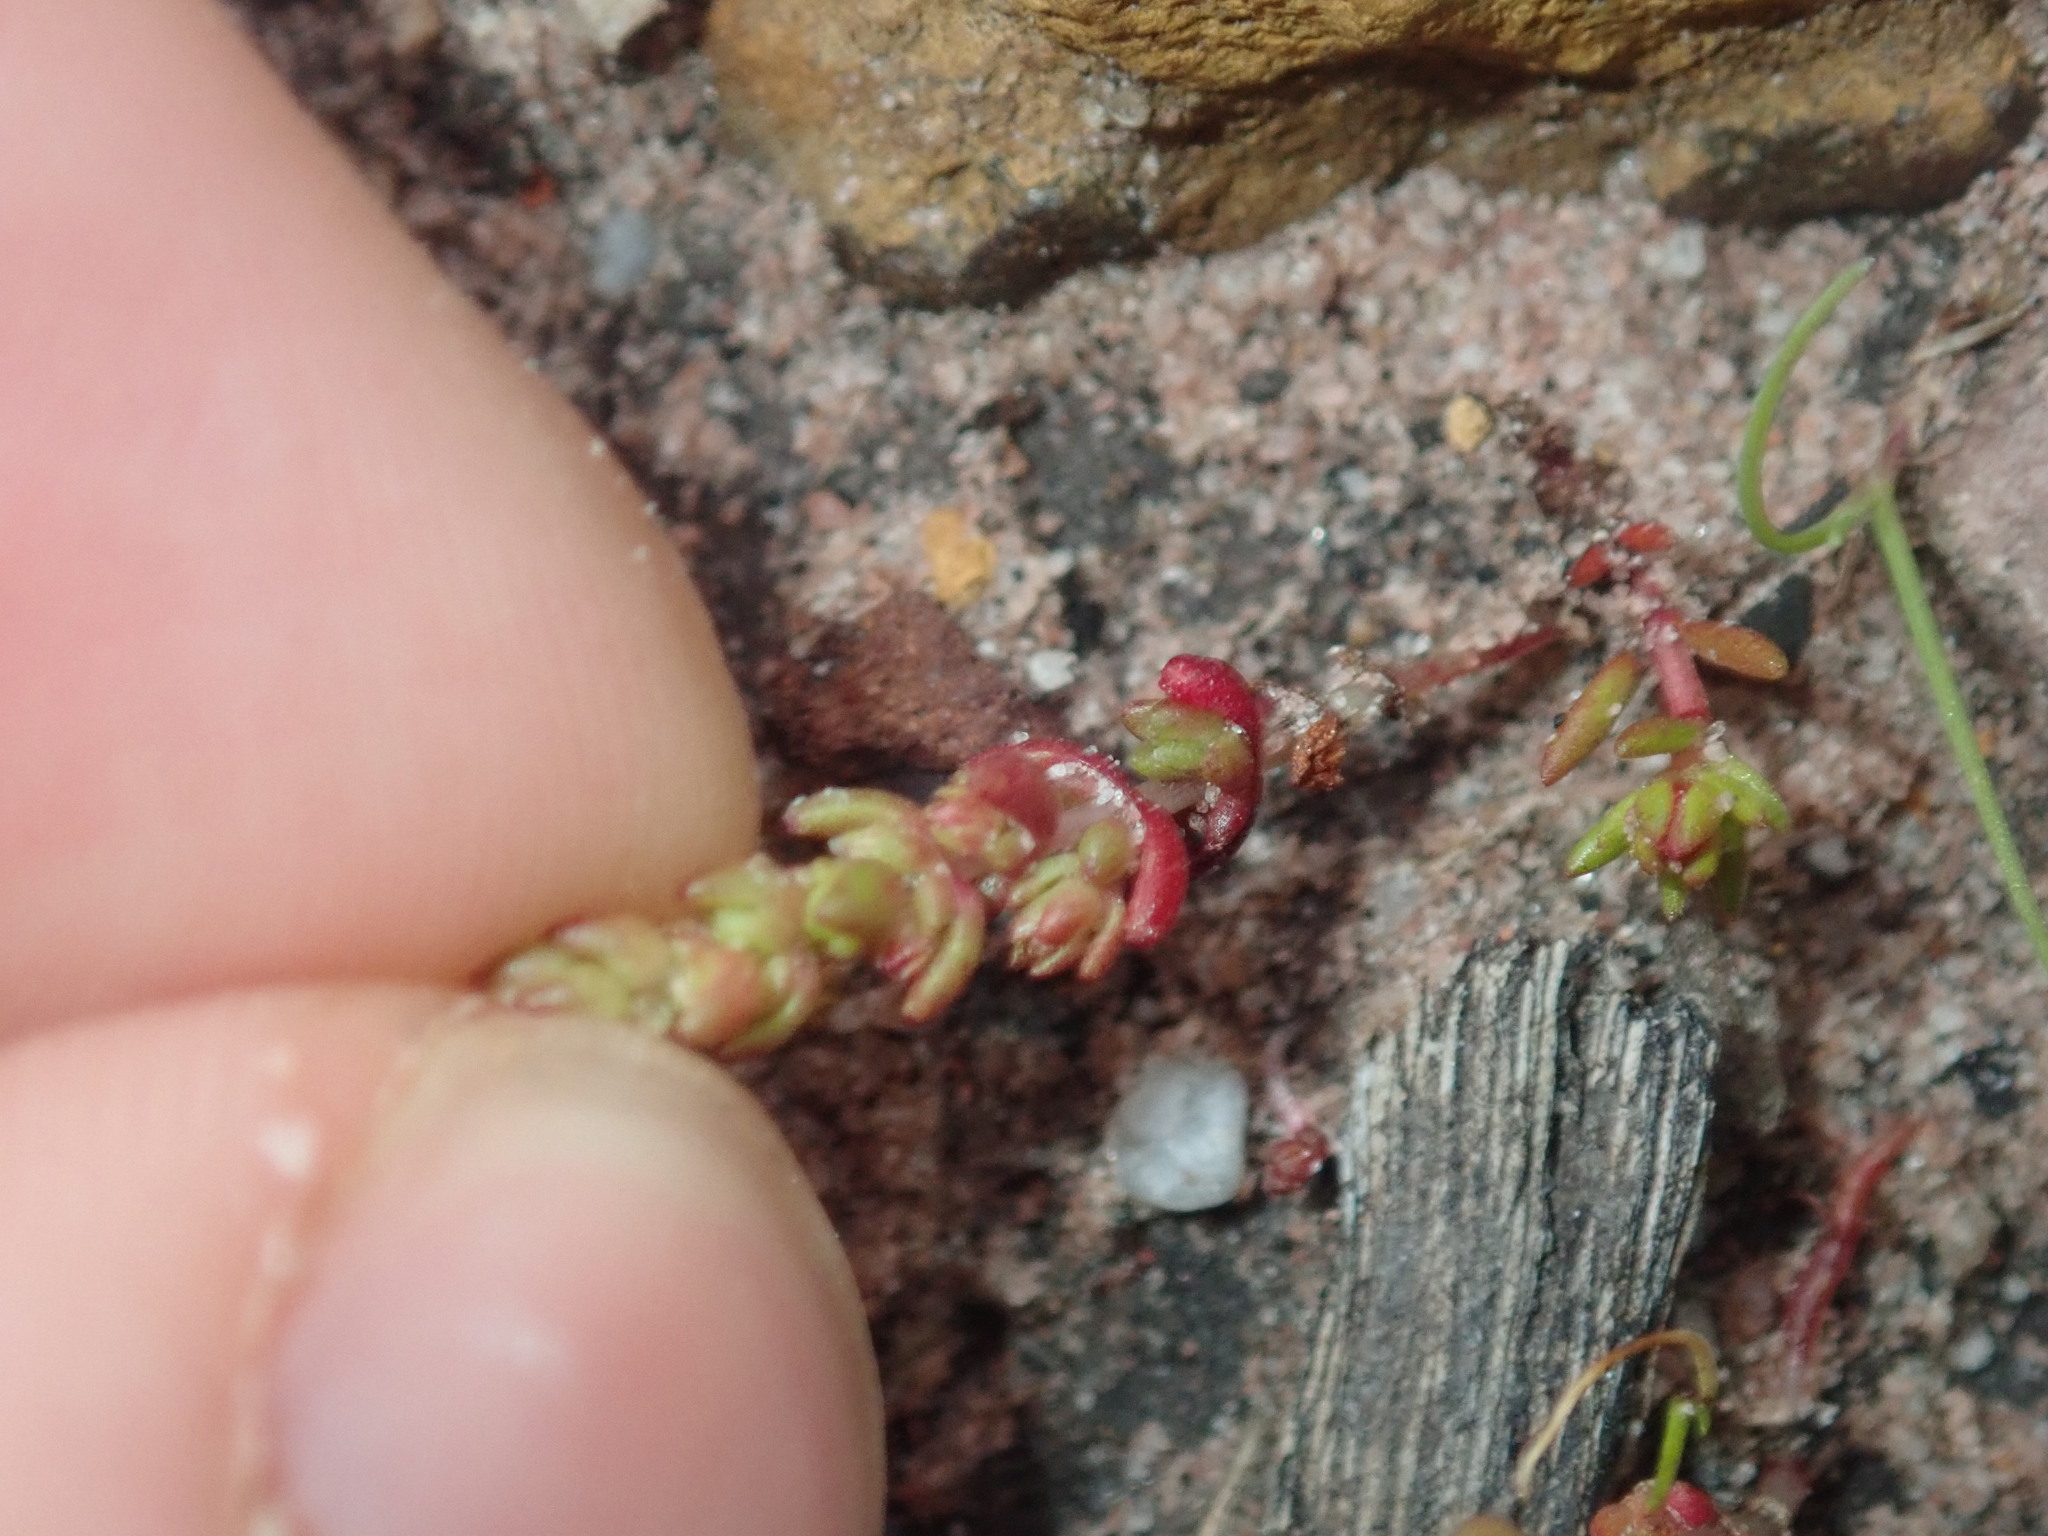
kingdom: Plantae
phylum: Tracheophyta
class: Magnoliopsida
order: Saxifragales
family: Crassulaceae
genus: Crassula
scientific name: Crassula colorata
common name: Dense pigmyweed
